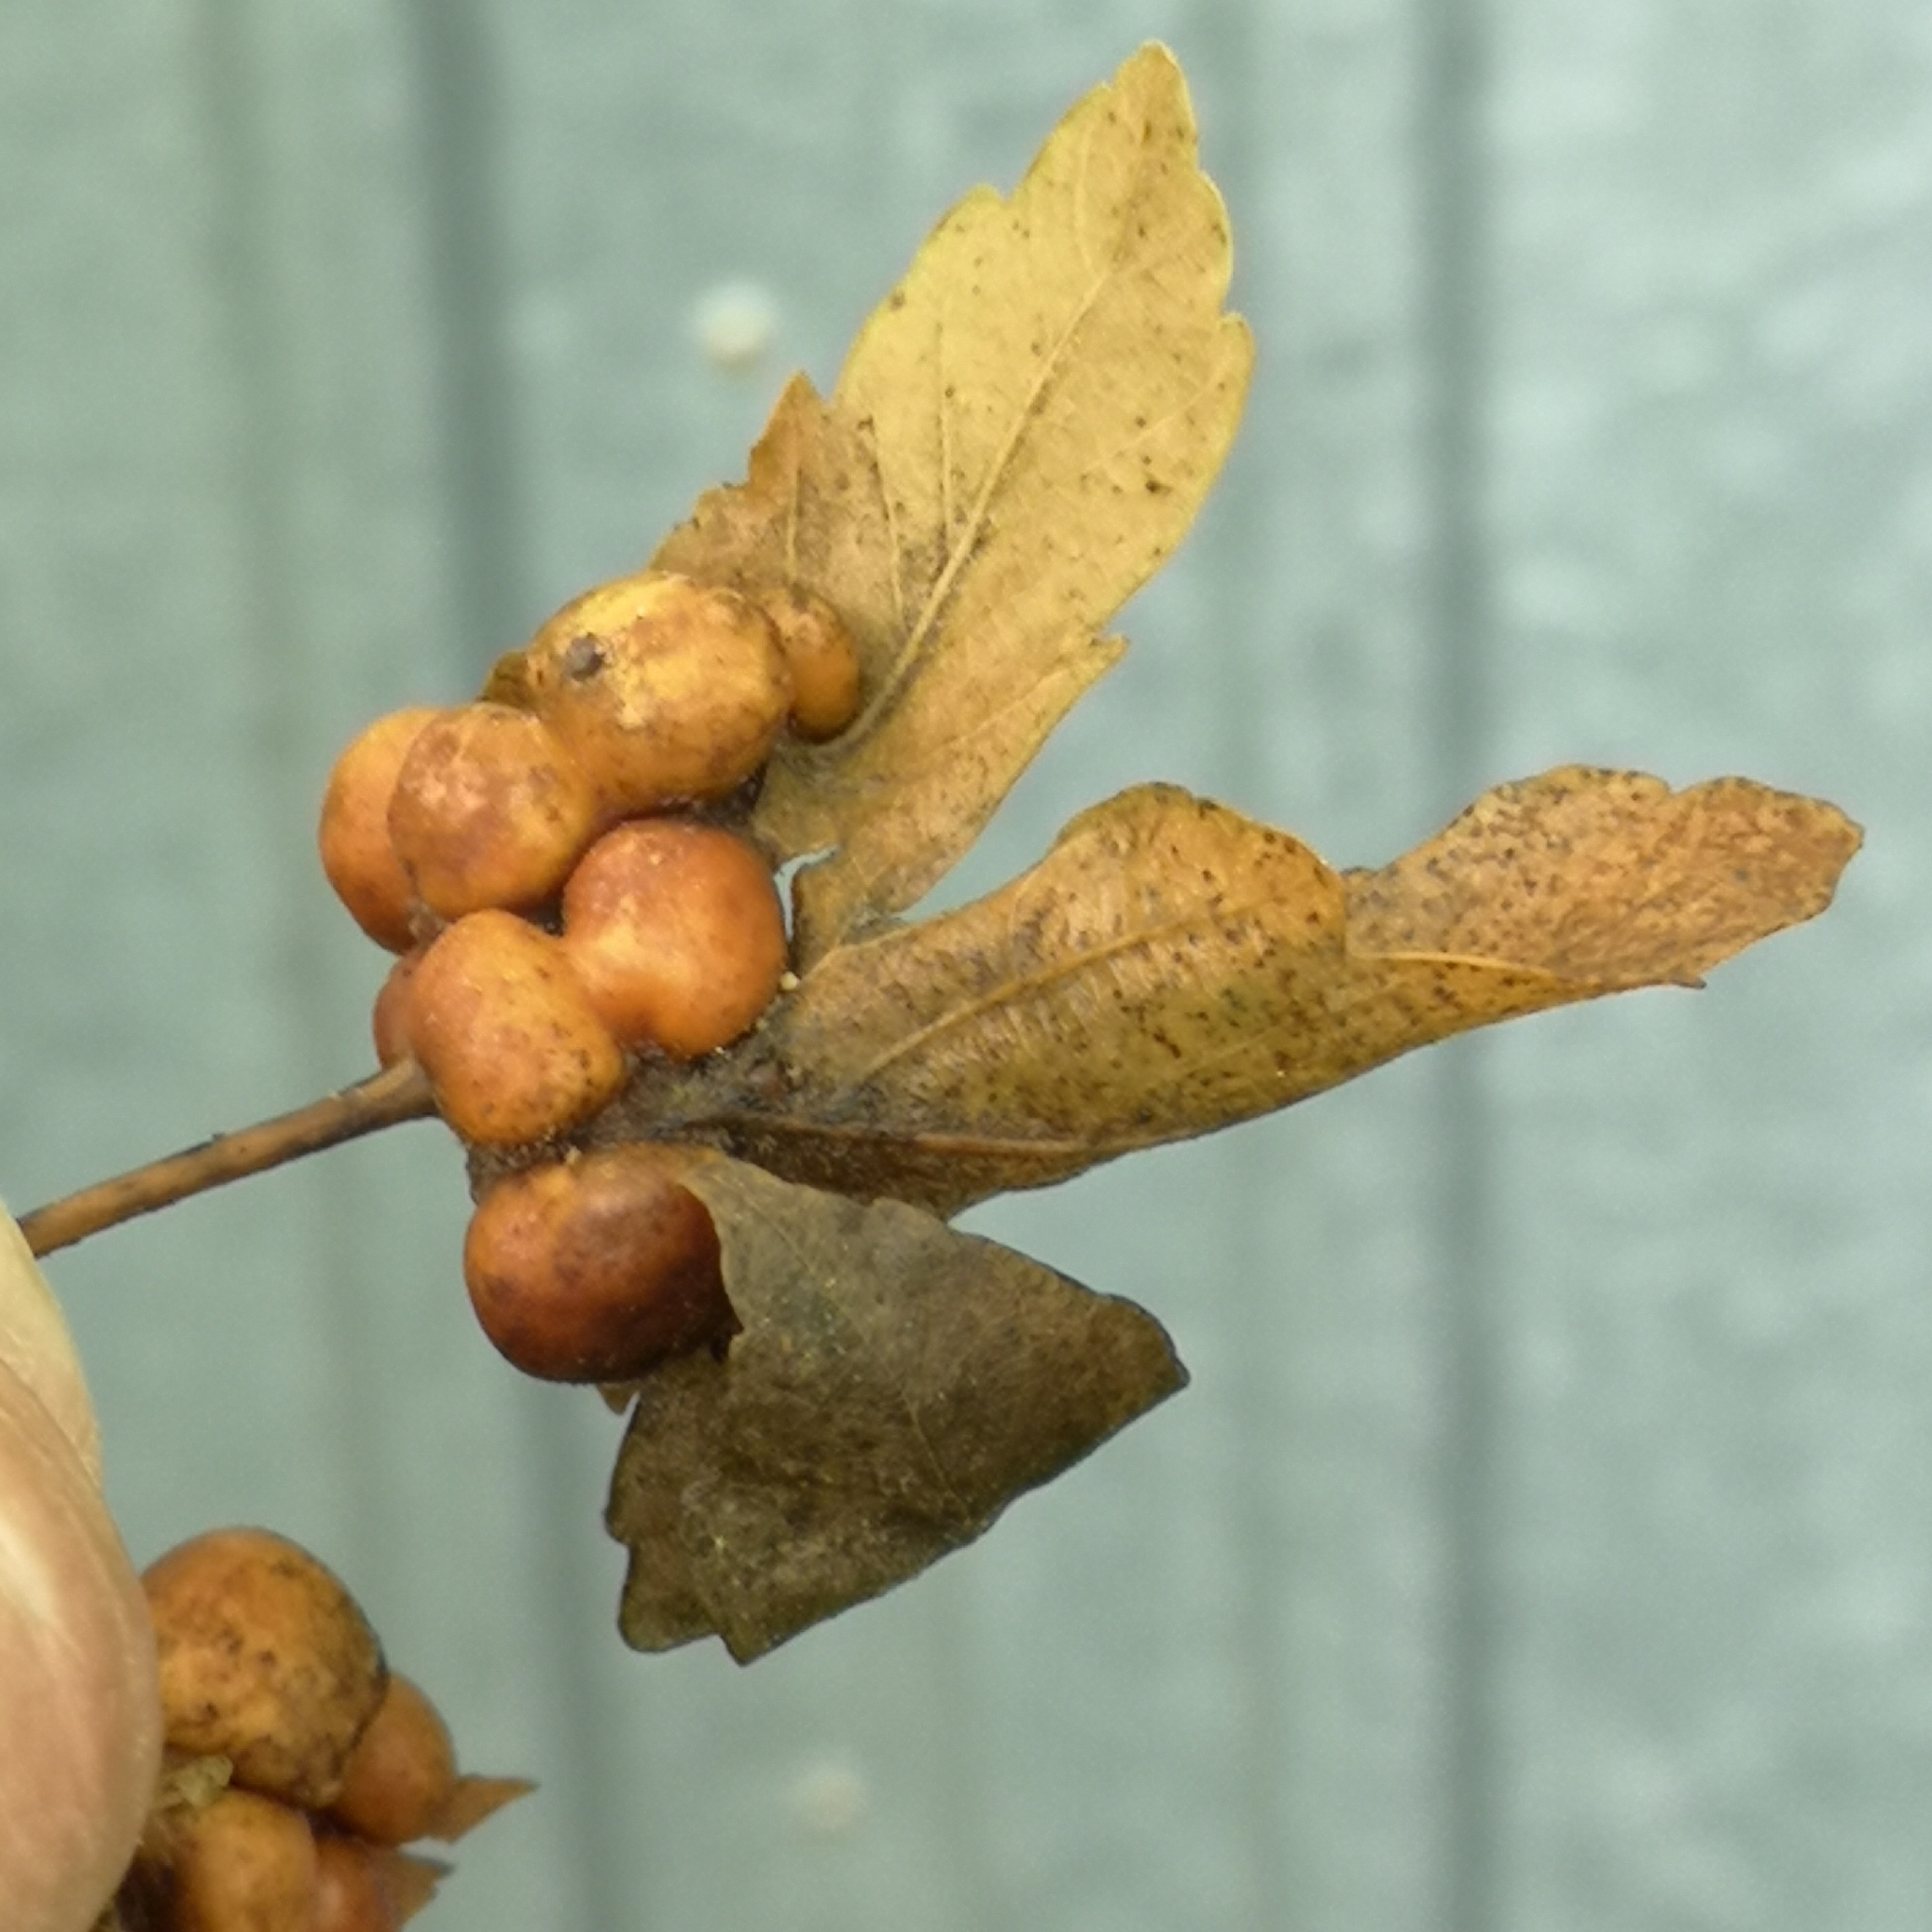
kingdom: Animalia
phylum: Arthropoda
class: Insecta
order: Hymenoptera
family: Cynipidae
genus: Pediaspis
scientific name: Pediaspis aceris
